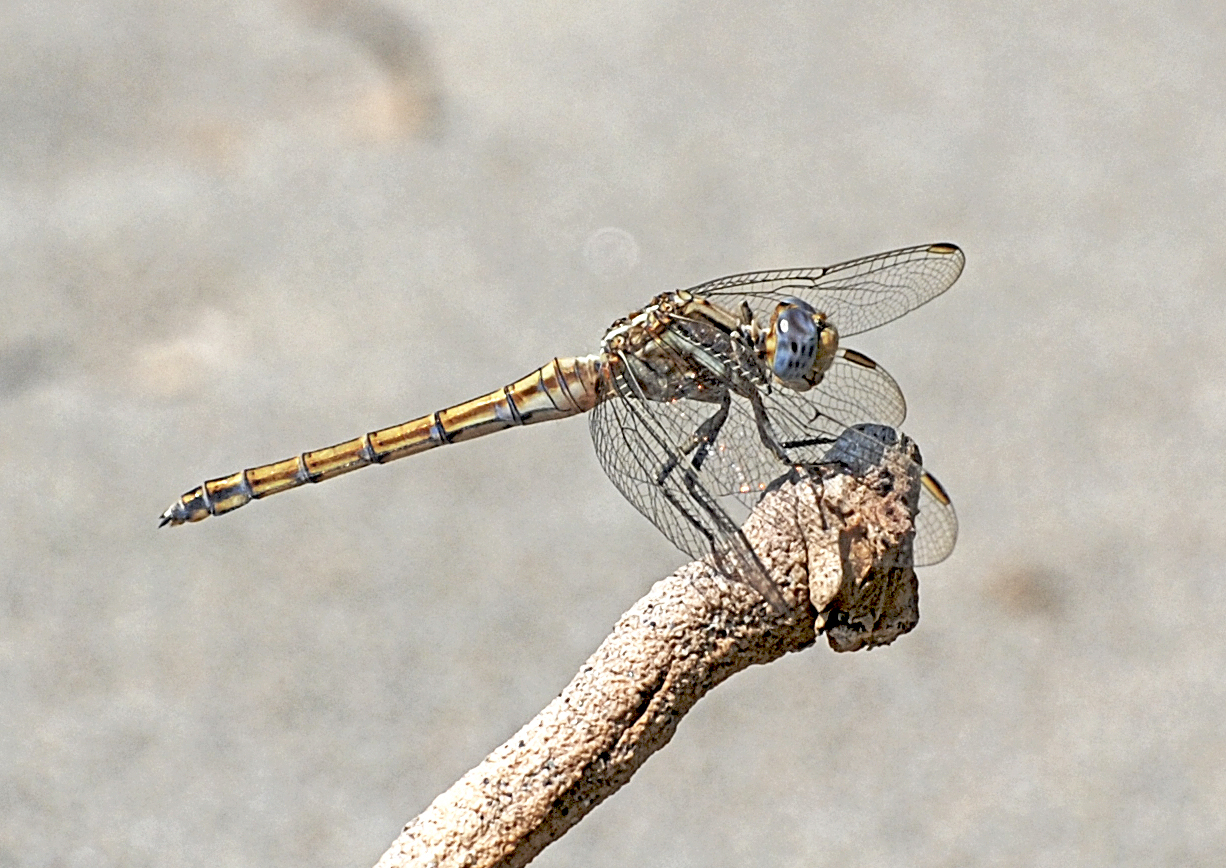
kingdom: Animalia
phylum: Arthropoda
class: Insecta
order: Odonata
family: Libellulidae
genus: Orthetrum
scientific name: Orthetrum chrysostigma
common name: Epaulet skimmer
